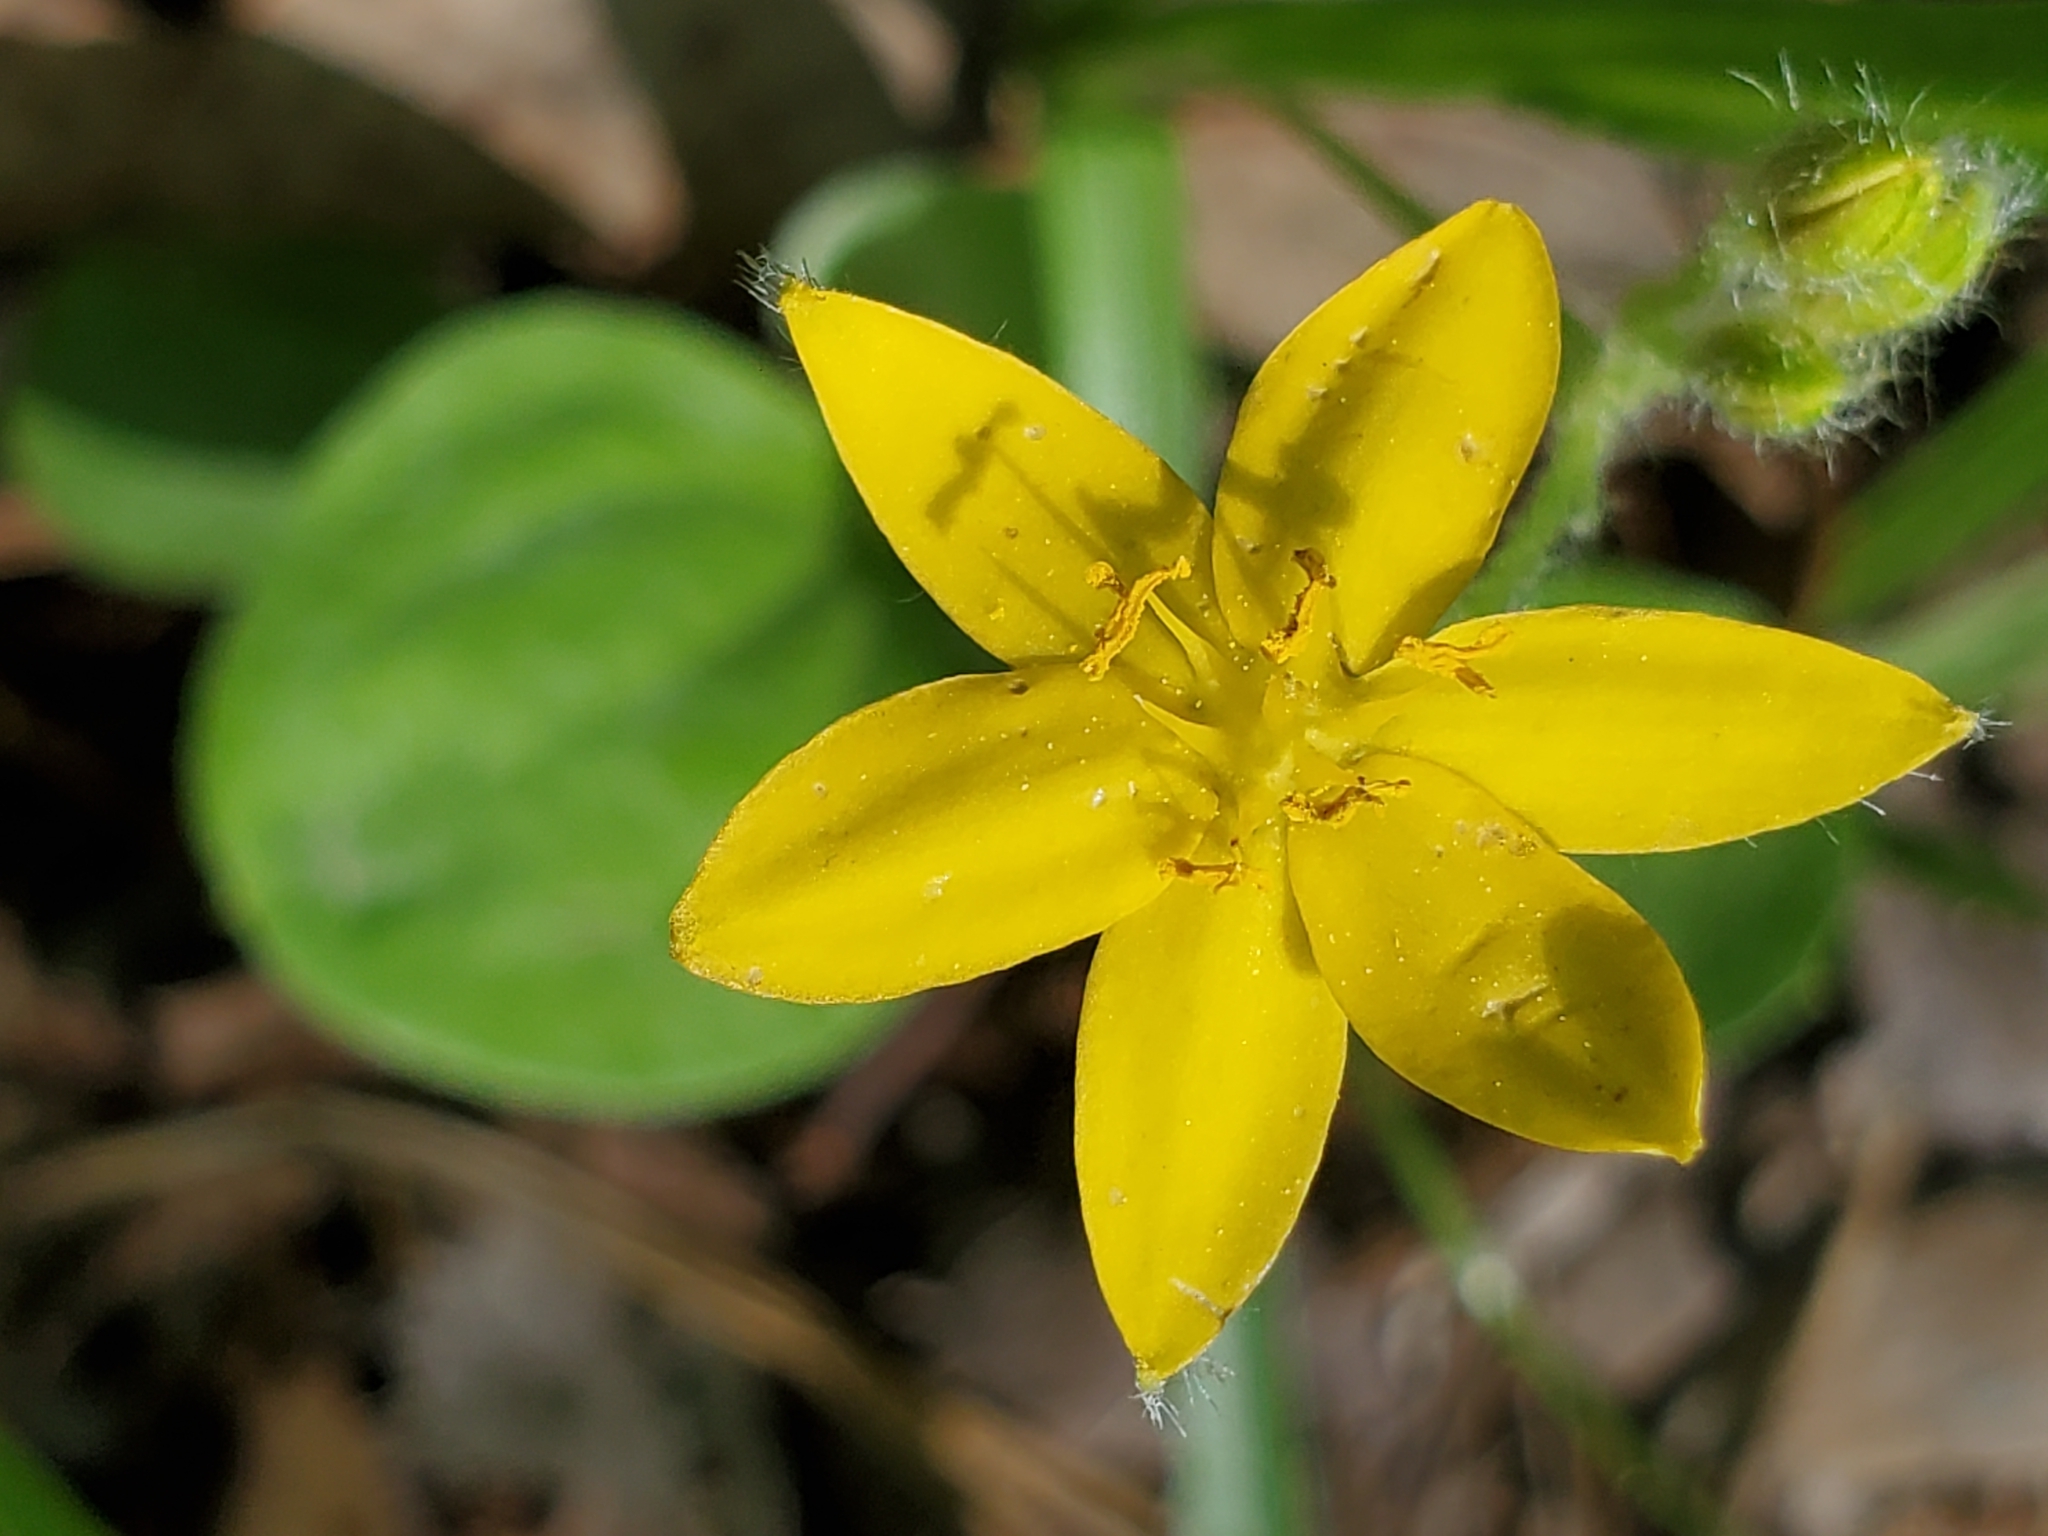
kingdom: Plantae
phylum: Tracheophyta
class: Liliopsida
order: Asparagales
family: Hypoxidaceae
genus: Hypoxis
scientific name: Hypoxis hirsuta
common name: Common goldstar
